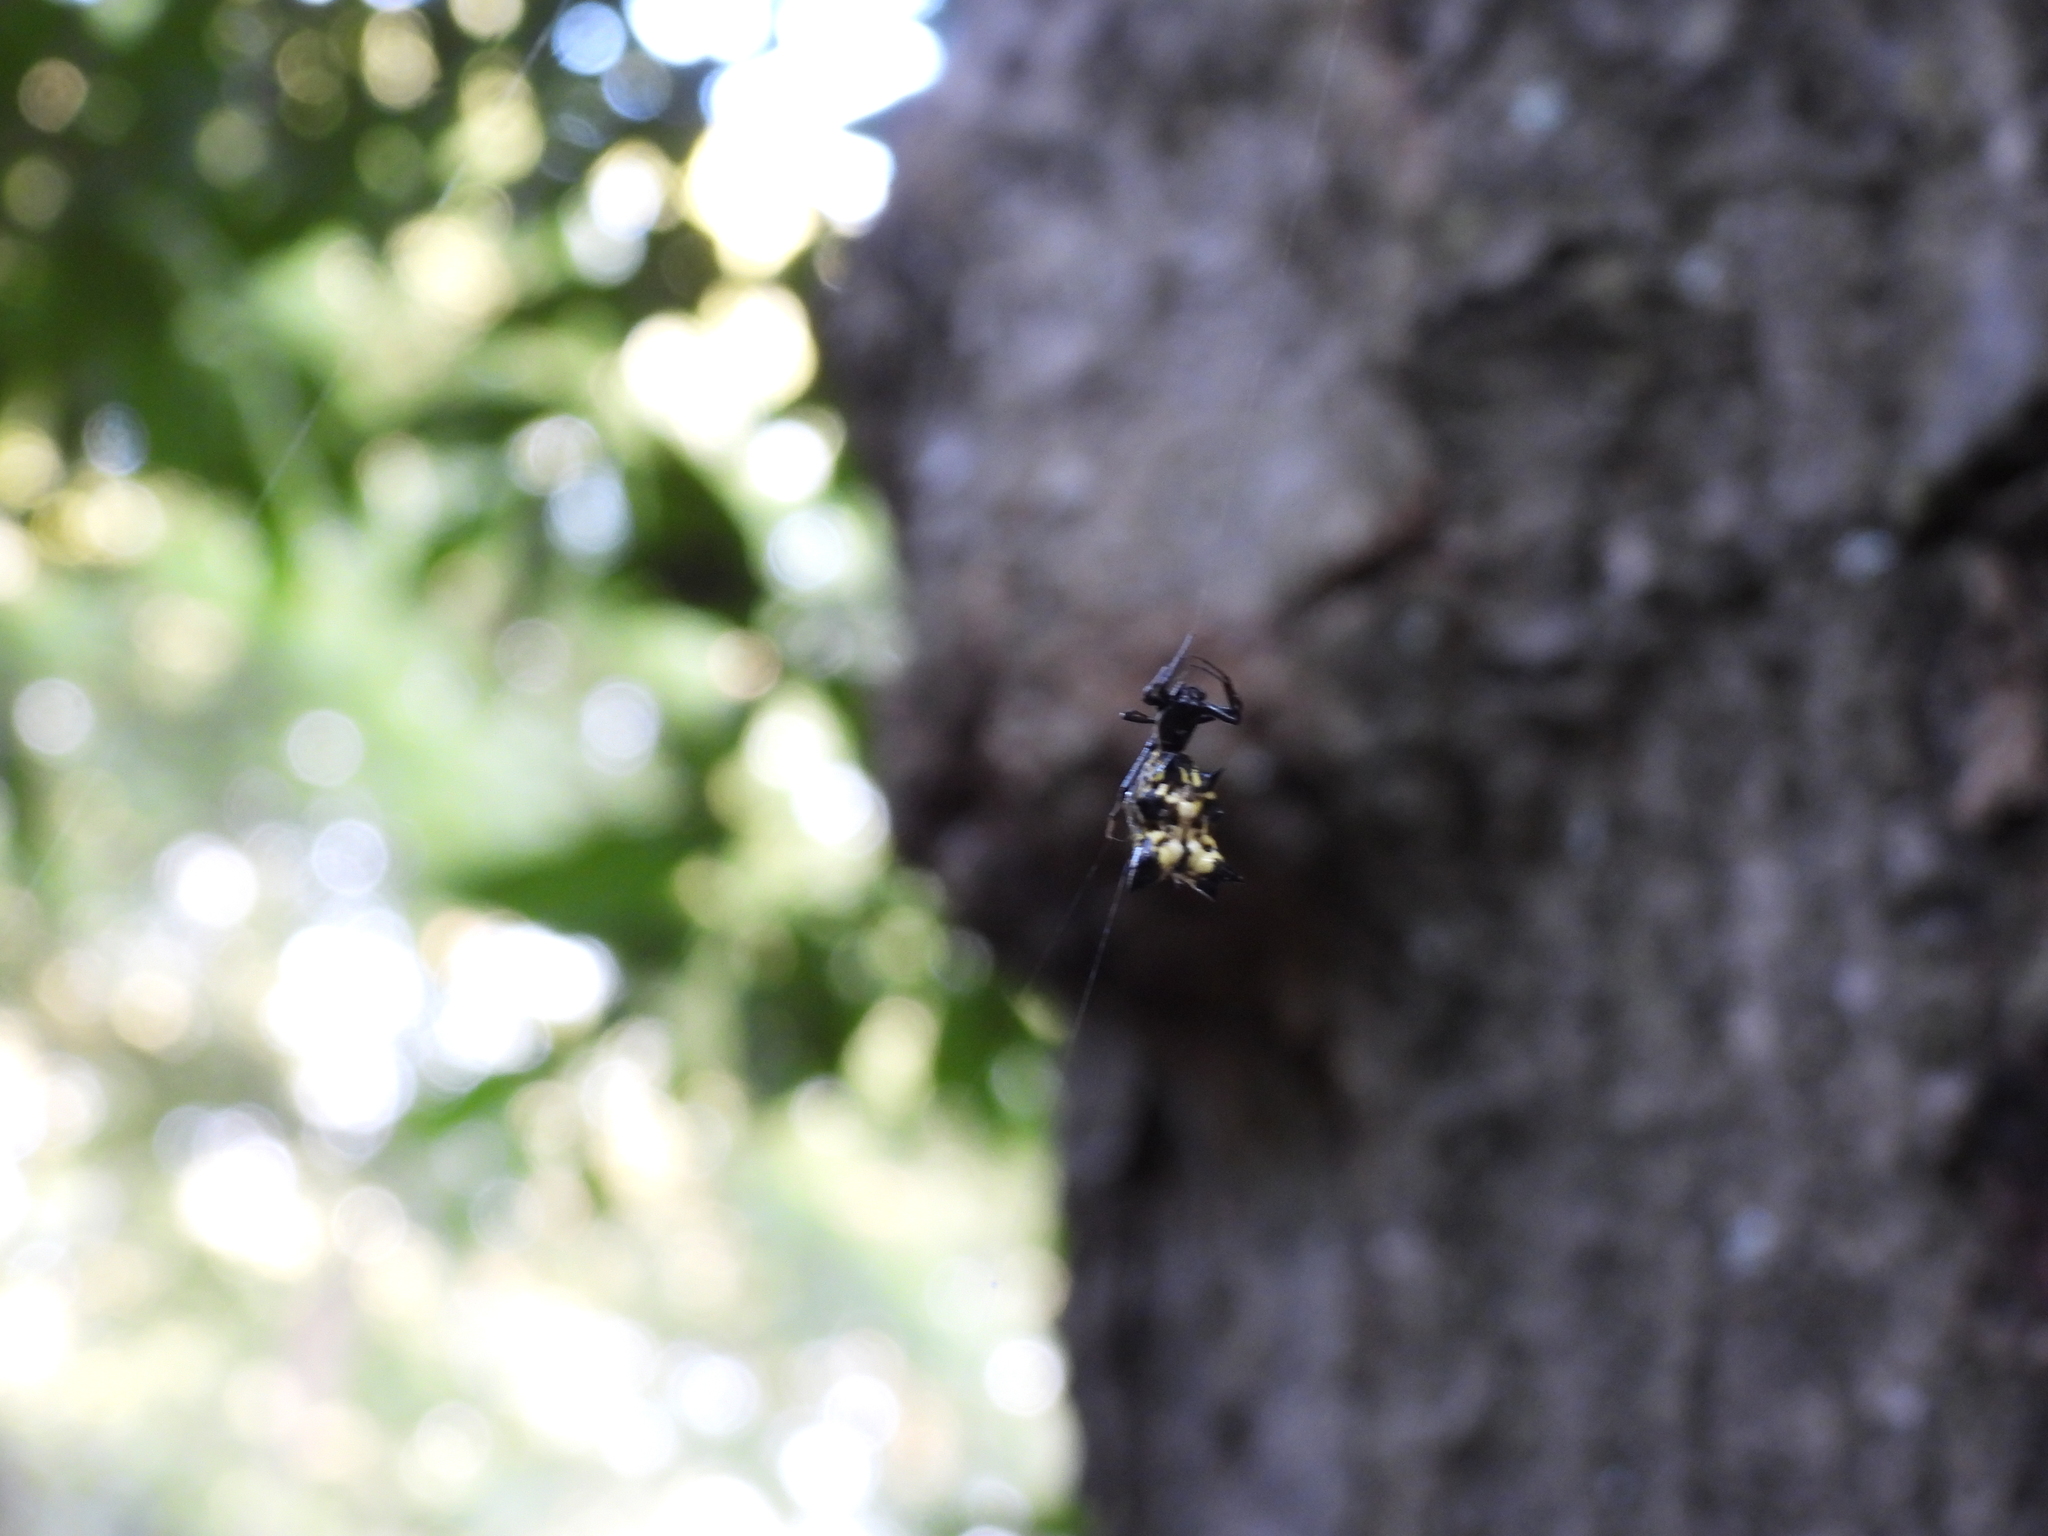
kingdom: Animalia
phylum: Arthropoda
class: Arachnida
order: Araneae
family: Araneidae
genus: Micrathena
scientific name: Micrathena gracilis
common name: Orb weavers
